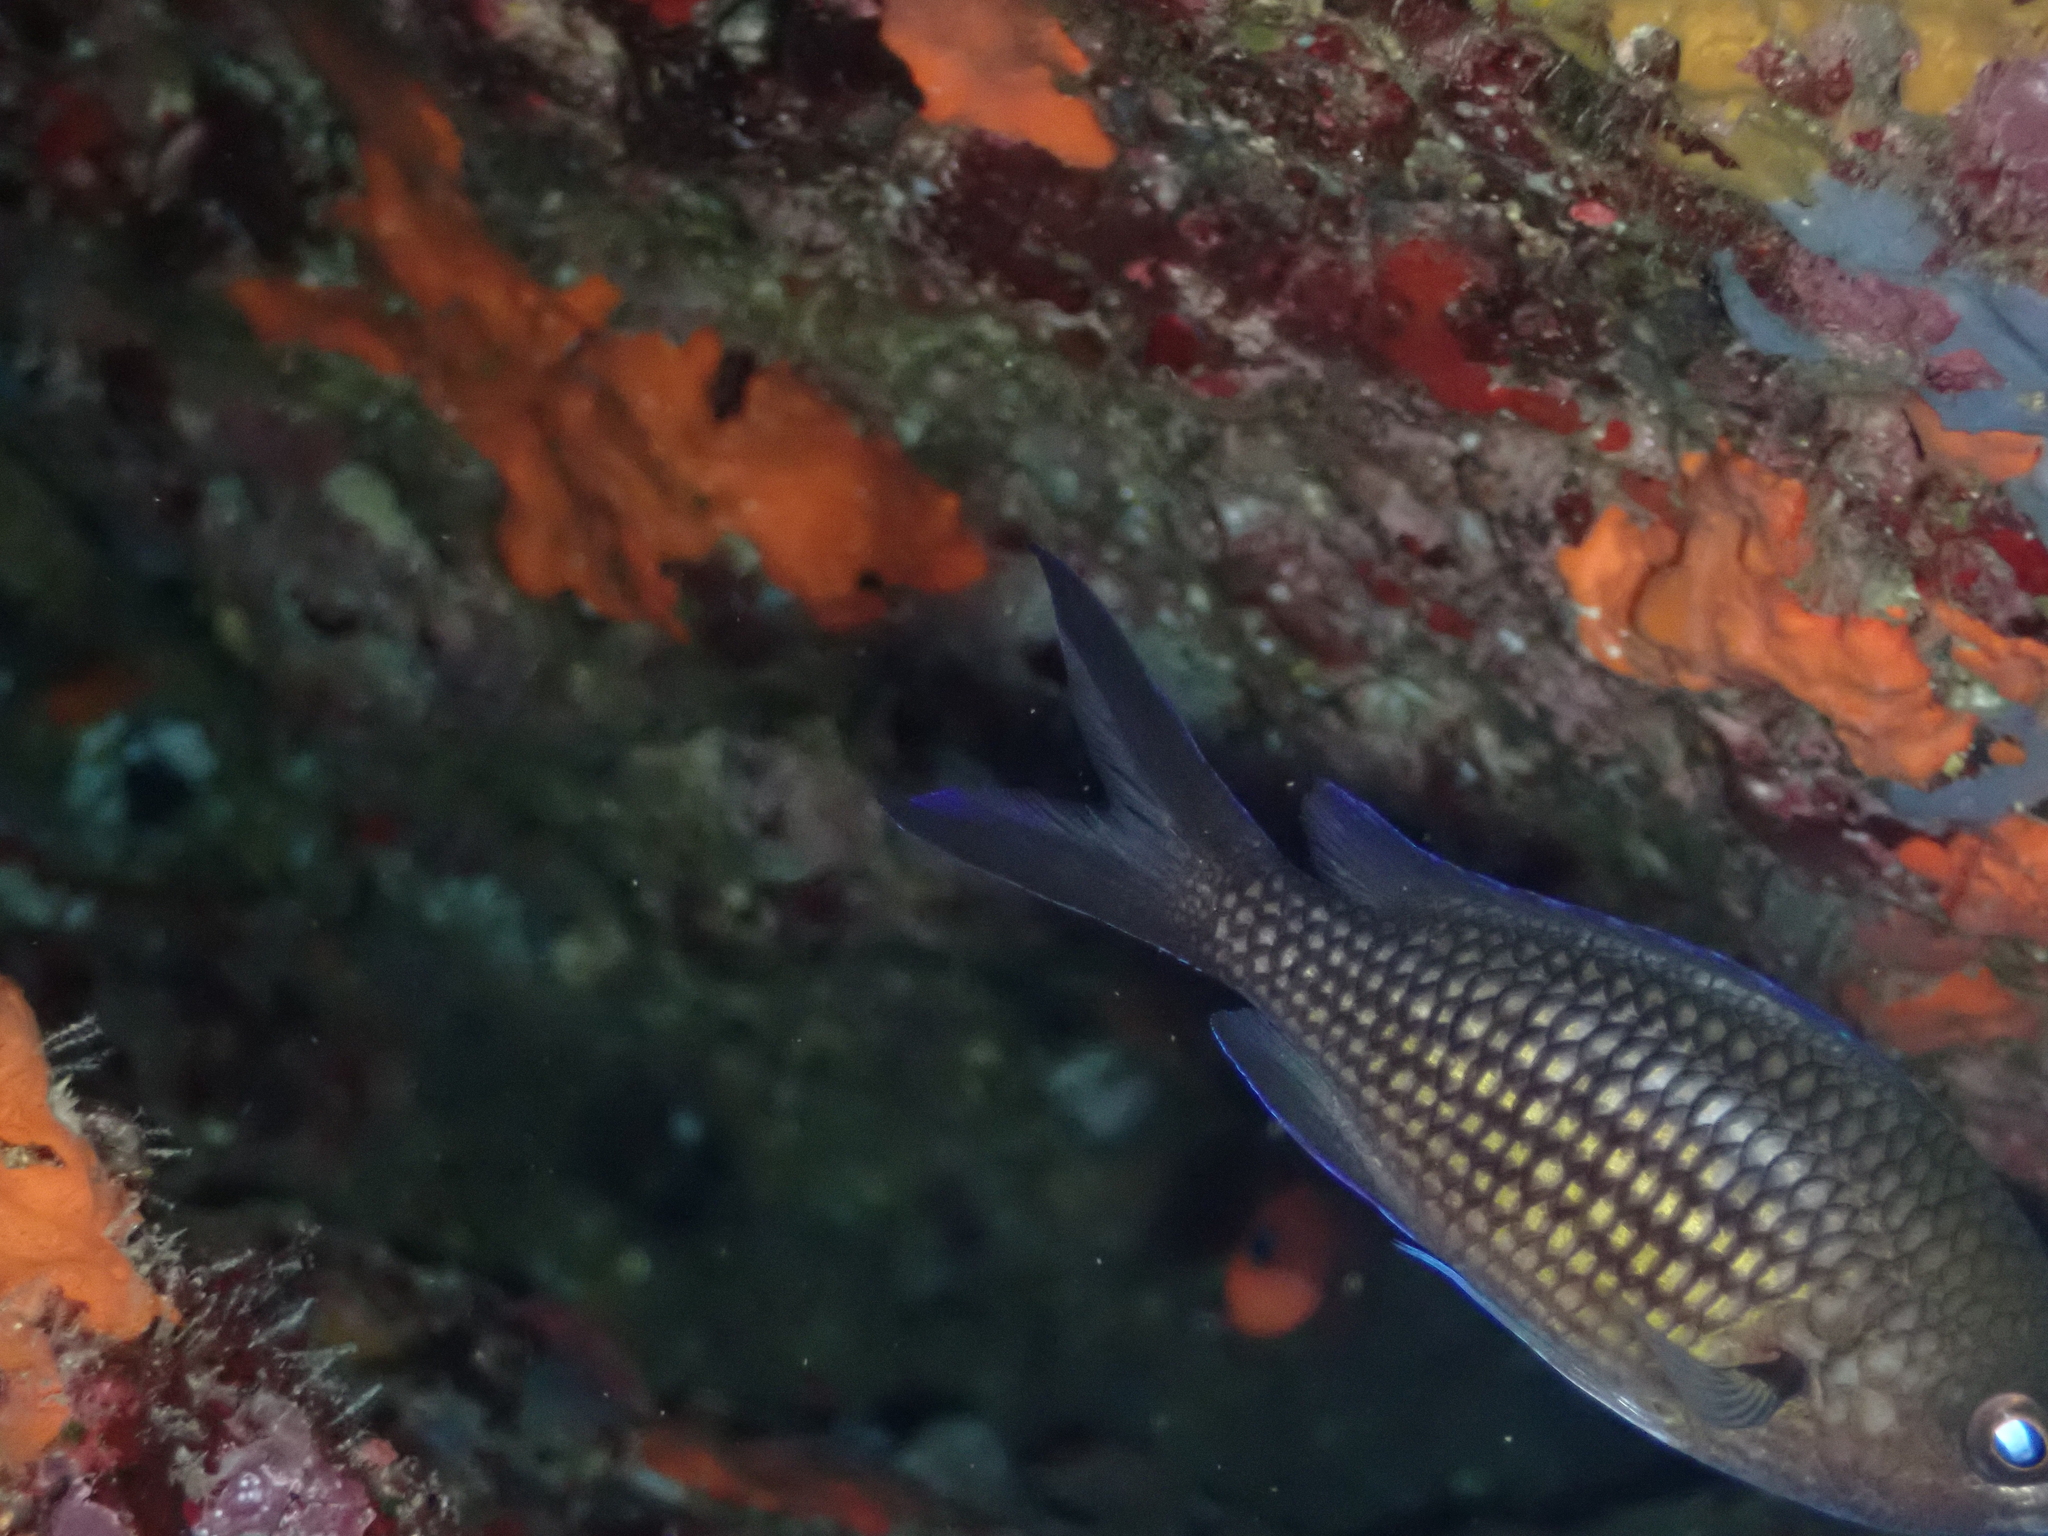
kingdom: Animalia
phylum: Chordata
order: Perciformes
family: Pomacentridae
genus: Chromis
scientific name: Chromis chromis
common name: Damselfish
